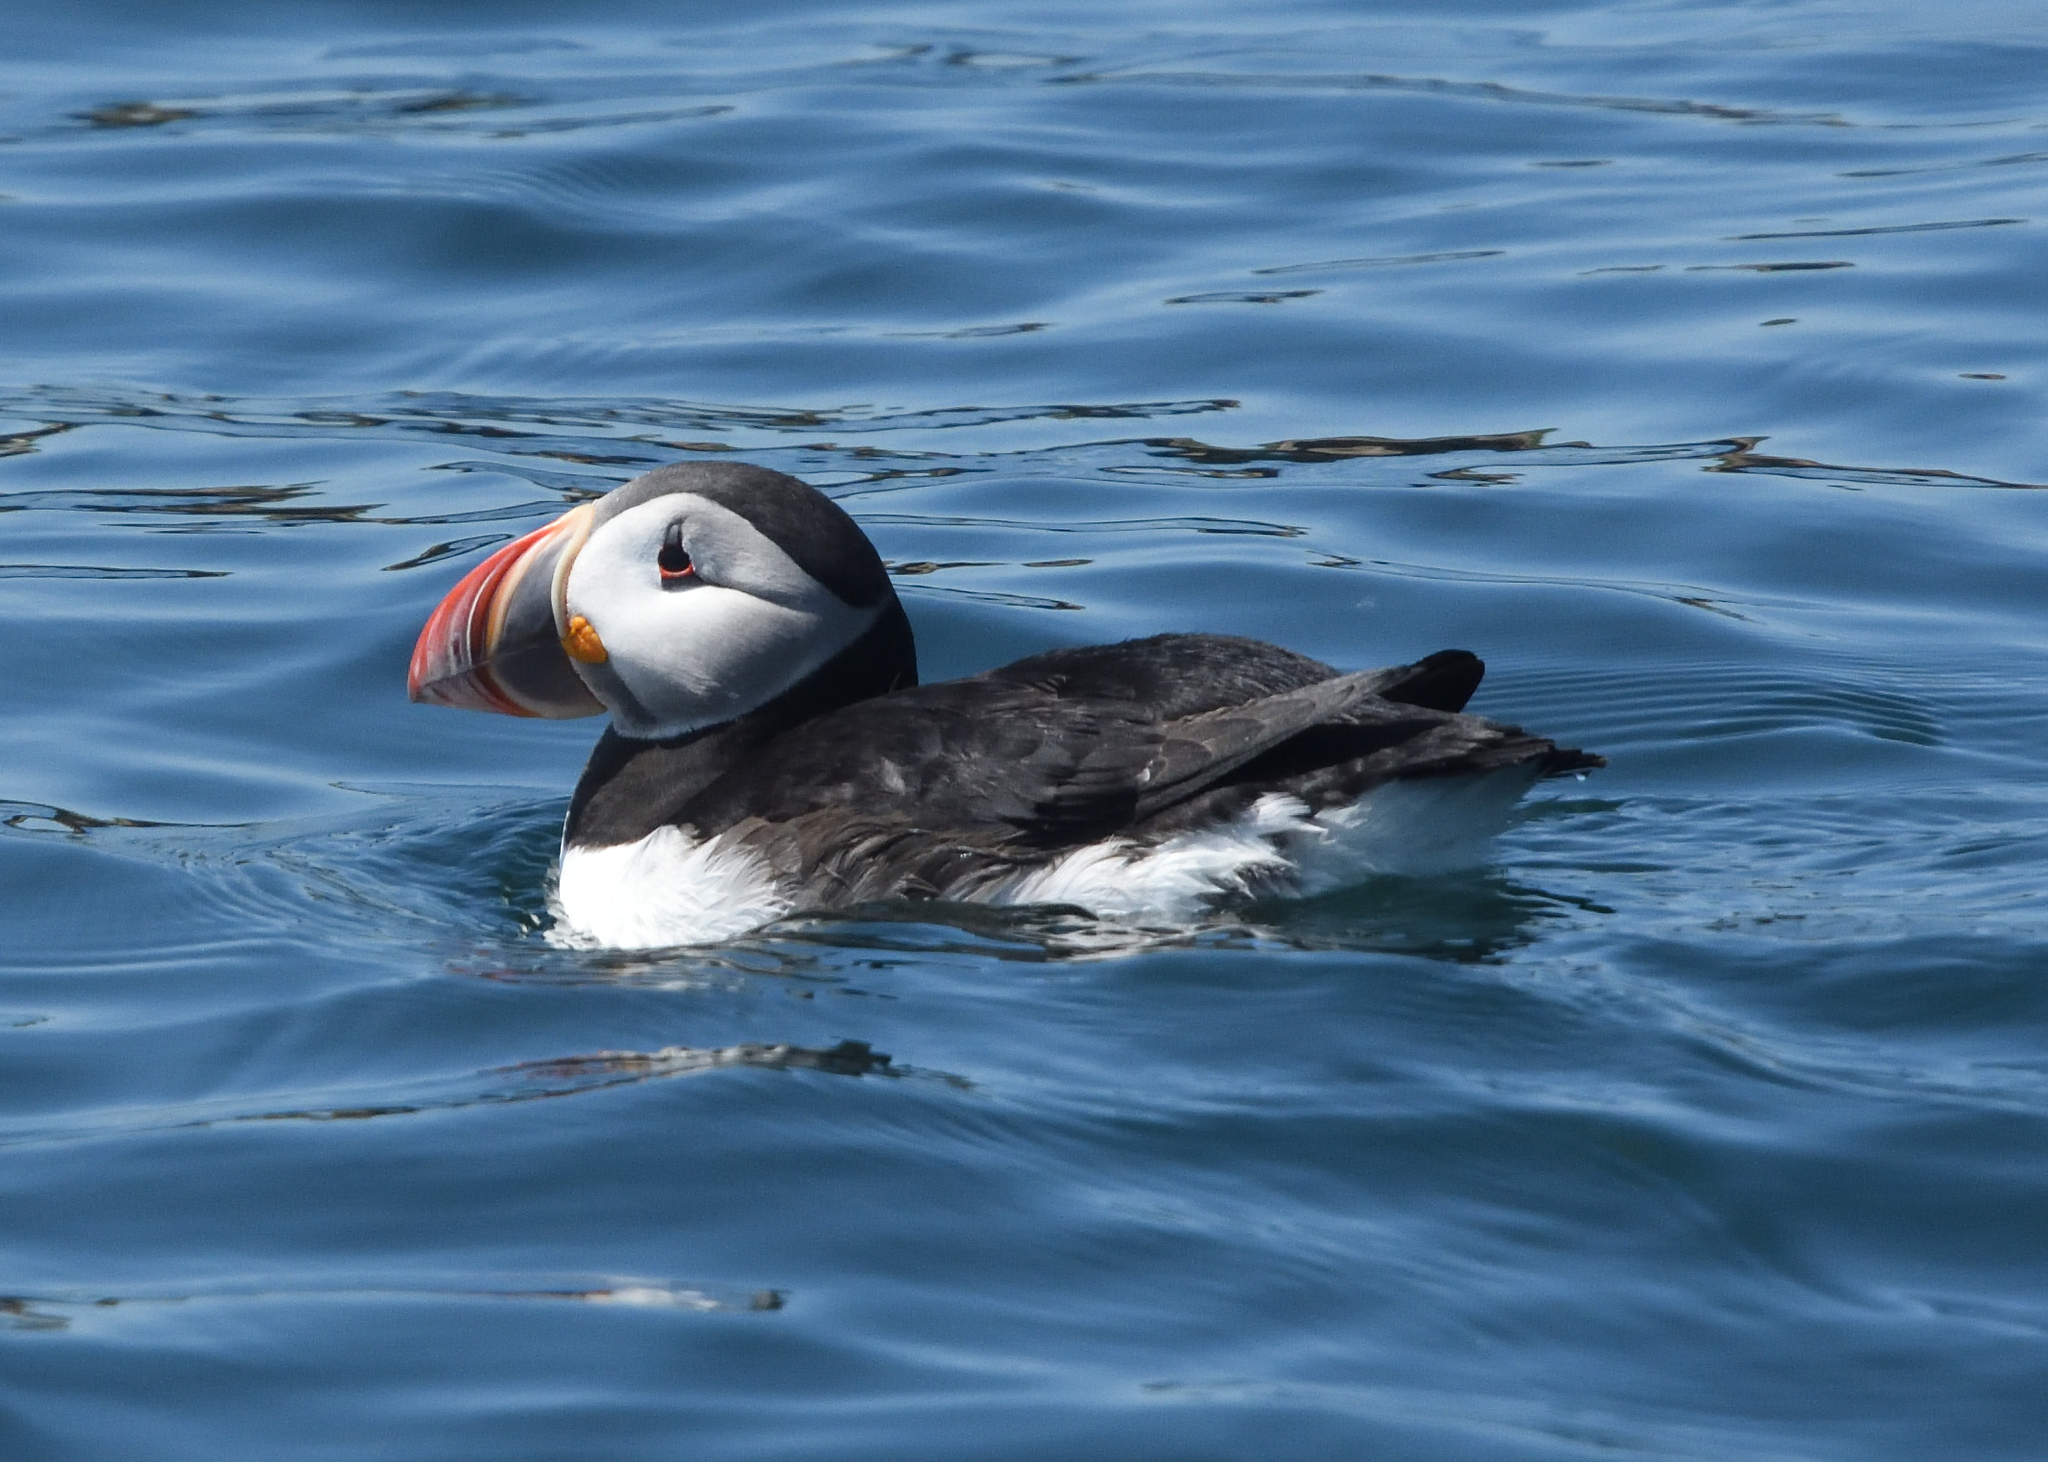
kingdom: Animalia
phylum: Chordata
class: Aves
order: Charadriiformes
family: Alcidae
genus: Fratercula
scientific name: Fratercula arctica
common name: Atlantic puffin
